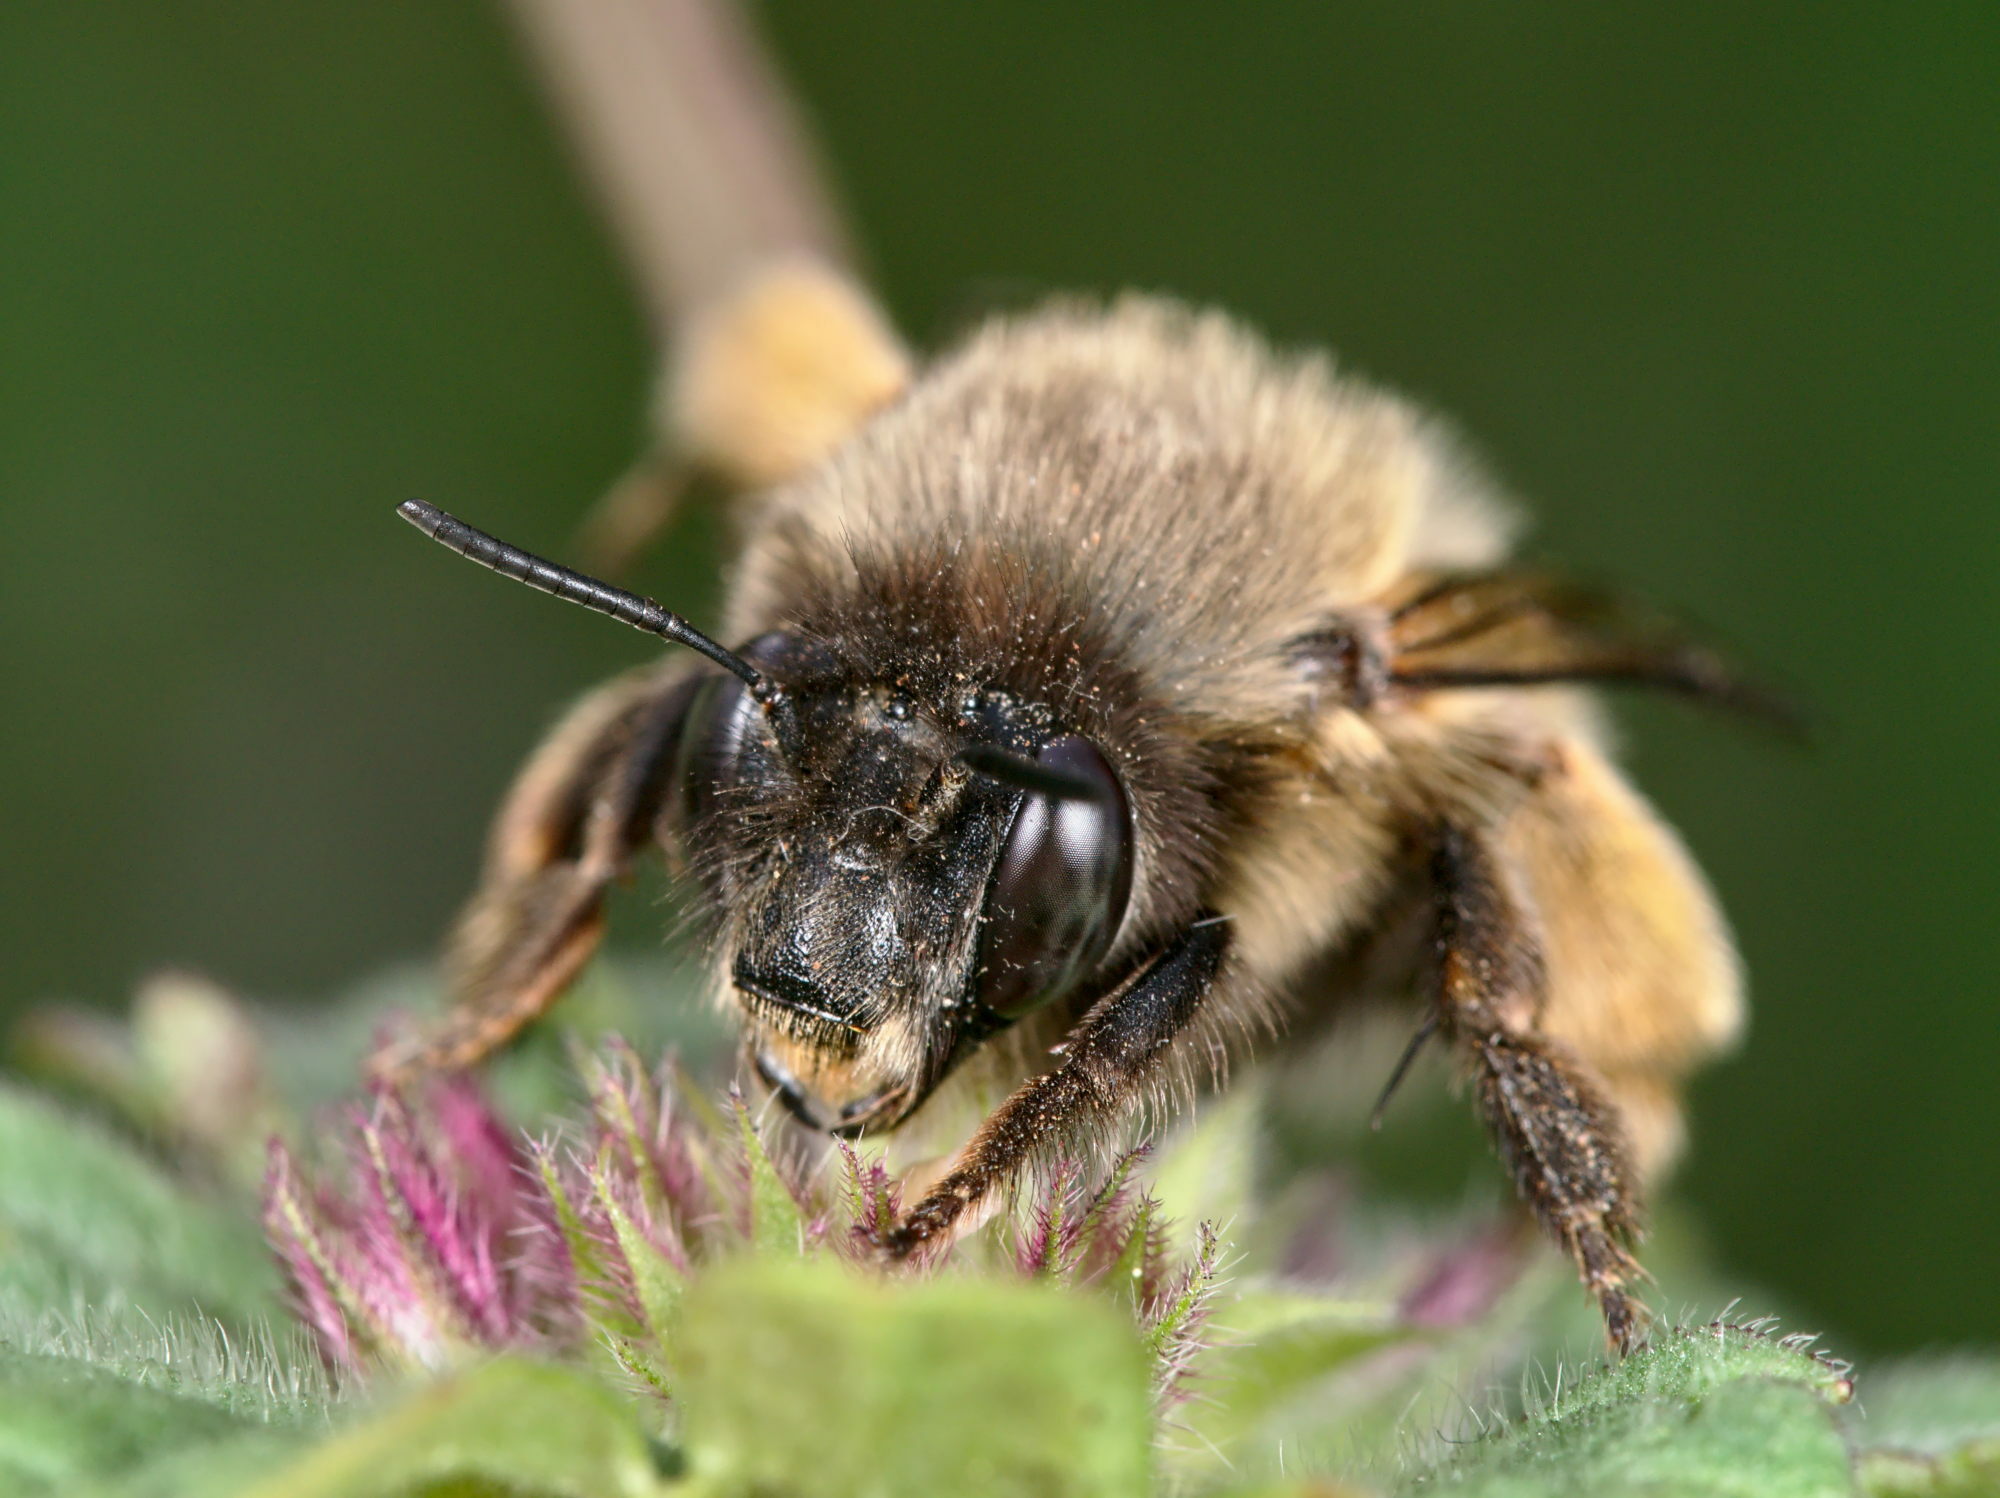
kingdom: Animalia
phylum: Arthropoda
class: Insecta
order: Hymenoptera
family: Apidae
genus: Anthophora
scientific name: Anthophora plumipes
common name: Hairy-footed flower bee
